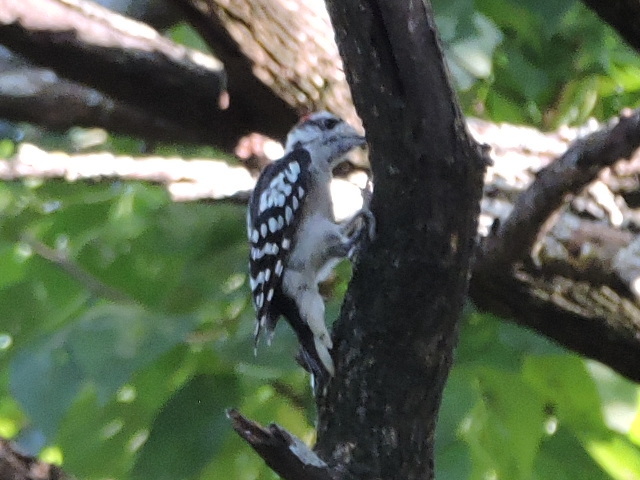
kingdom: Animalia
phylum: Chordata
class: Aves
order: Piciformes
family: Picidae
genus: Dryobates
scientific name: Dryobates pubescens
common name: Downy woodpecker
